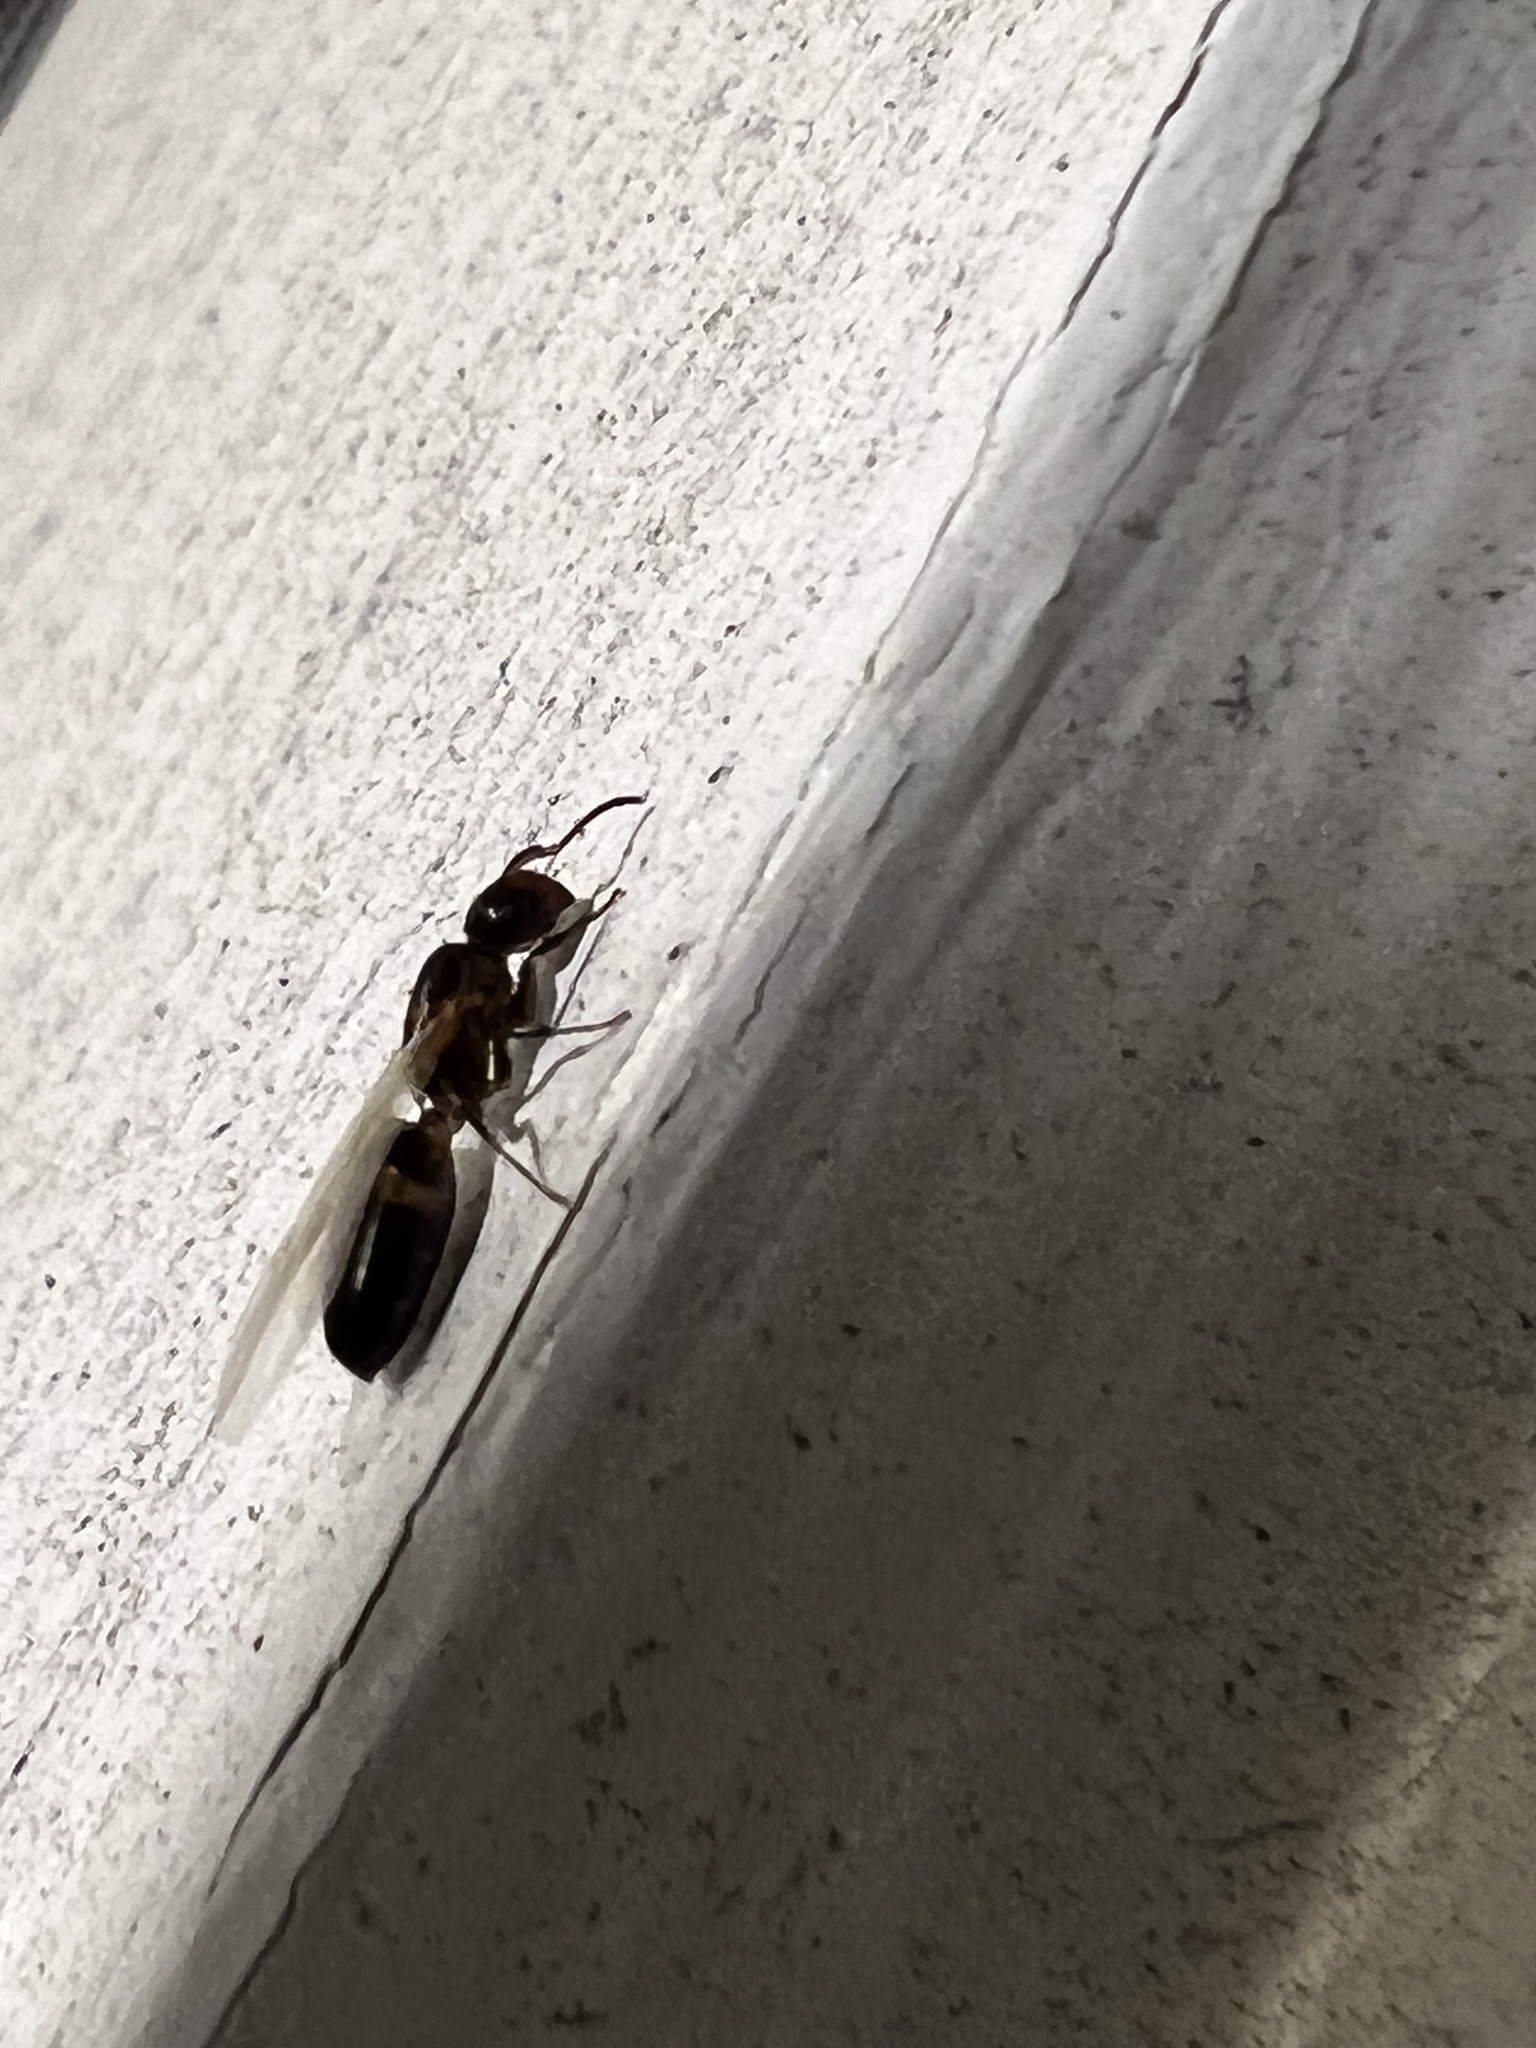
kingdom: Animalia
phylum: Arthropoda
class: Insecta
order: Hymenoptera
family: Formicidae
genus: Colobopsis
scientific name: Colobopsis
